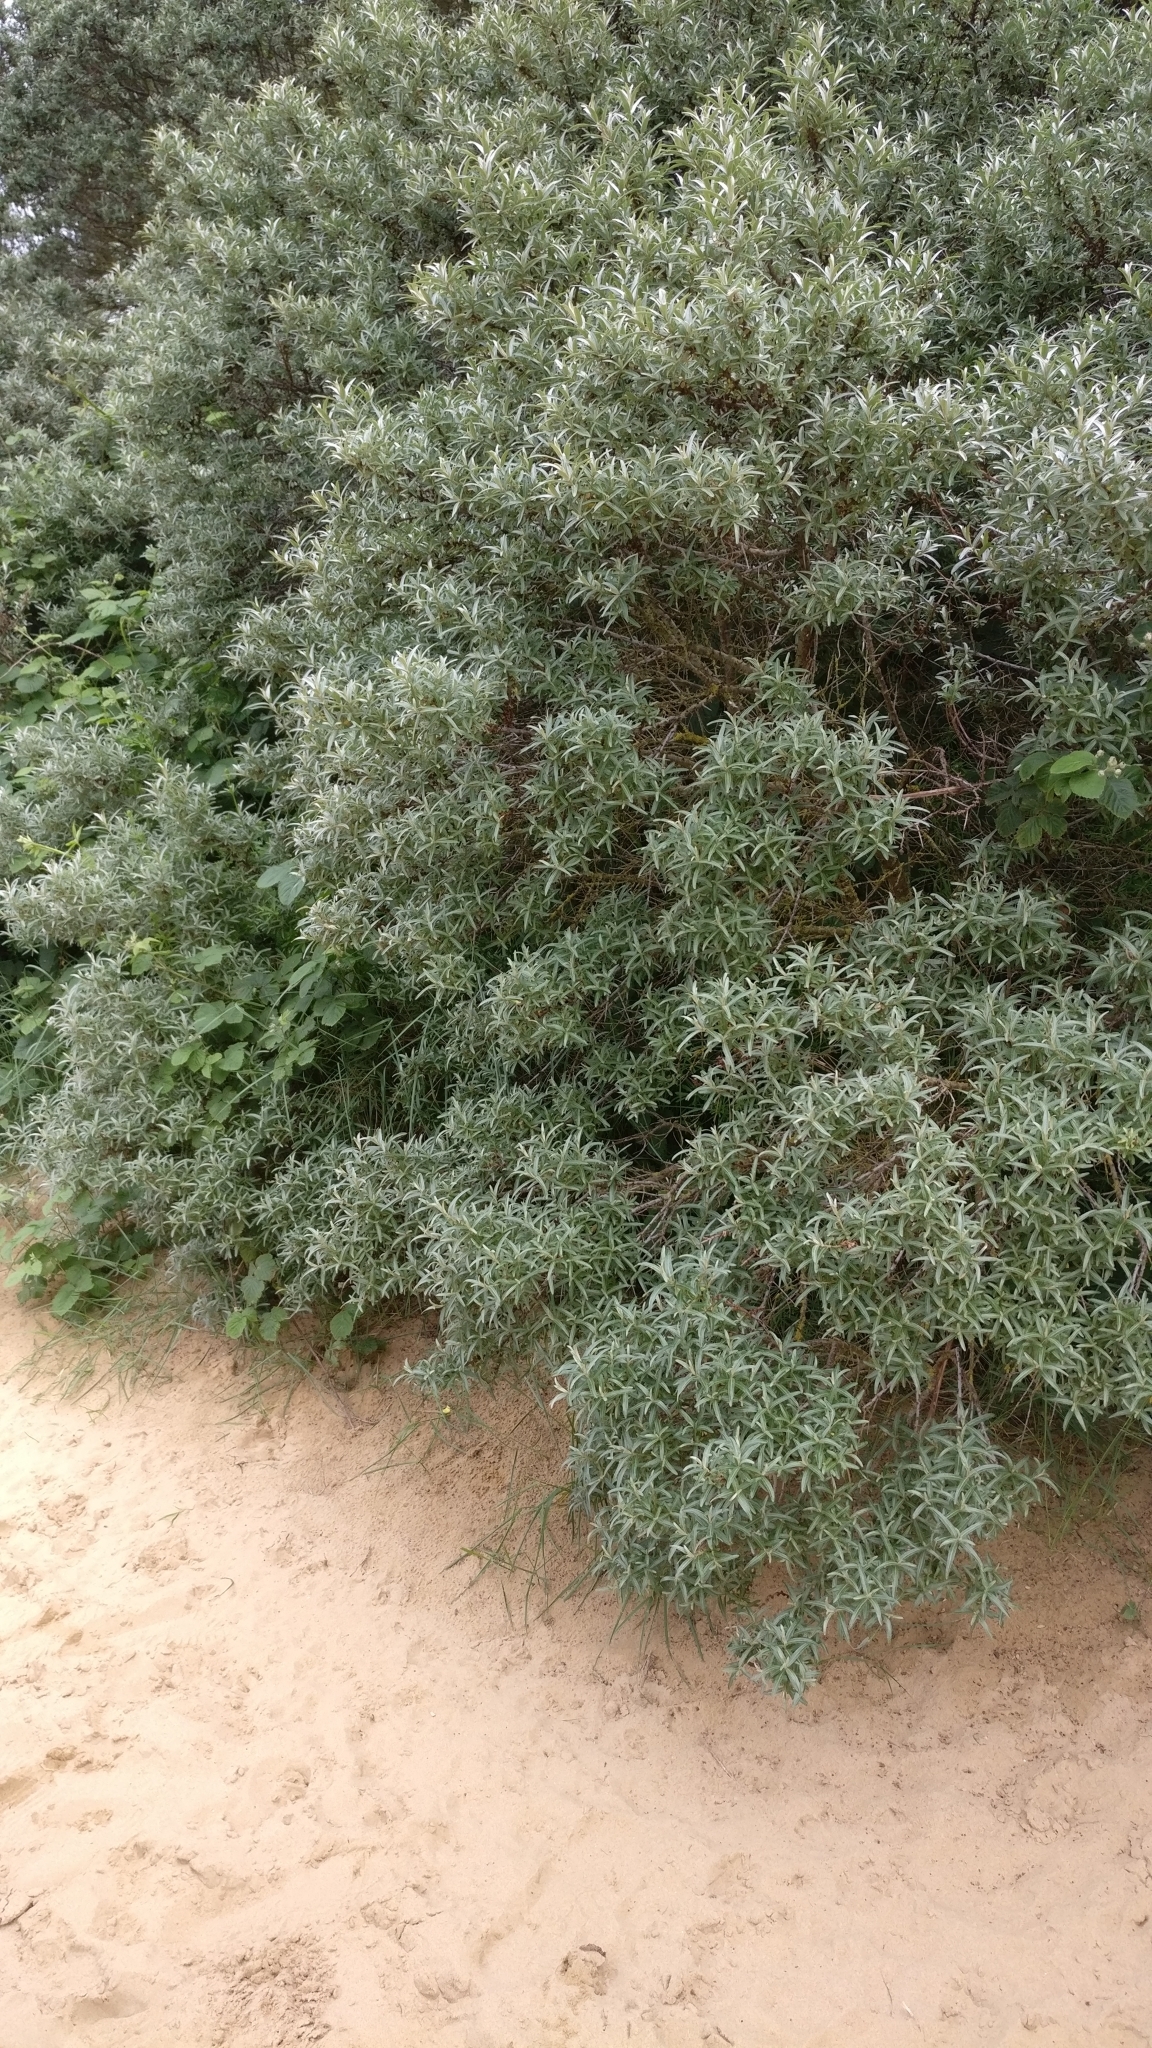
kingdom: Plantae
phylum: Tracheophyta
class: Magnoliopsida
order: Rosales
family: Elaeagnaceae
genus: Hippophae
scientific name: Hippophae rhamnoides
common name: Sea-buckthorn
